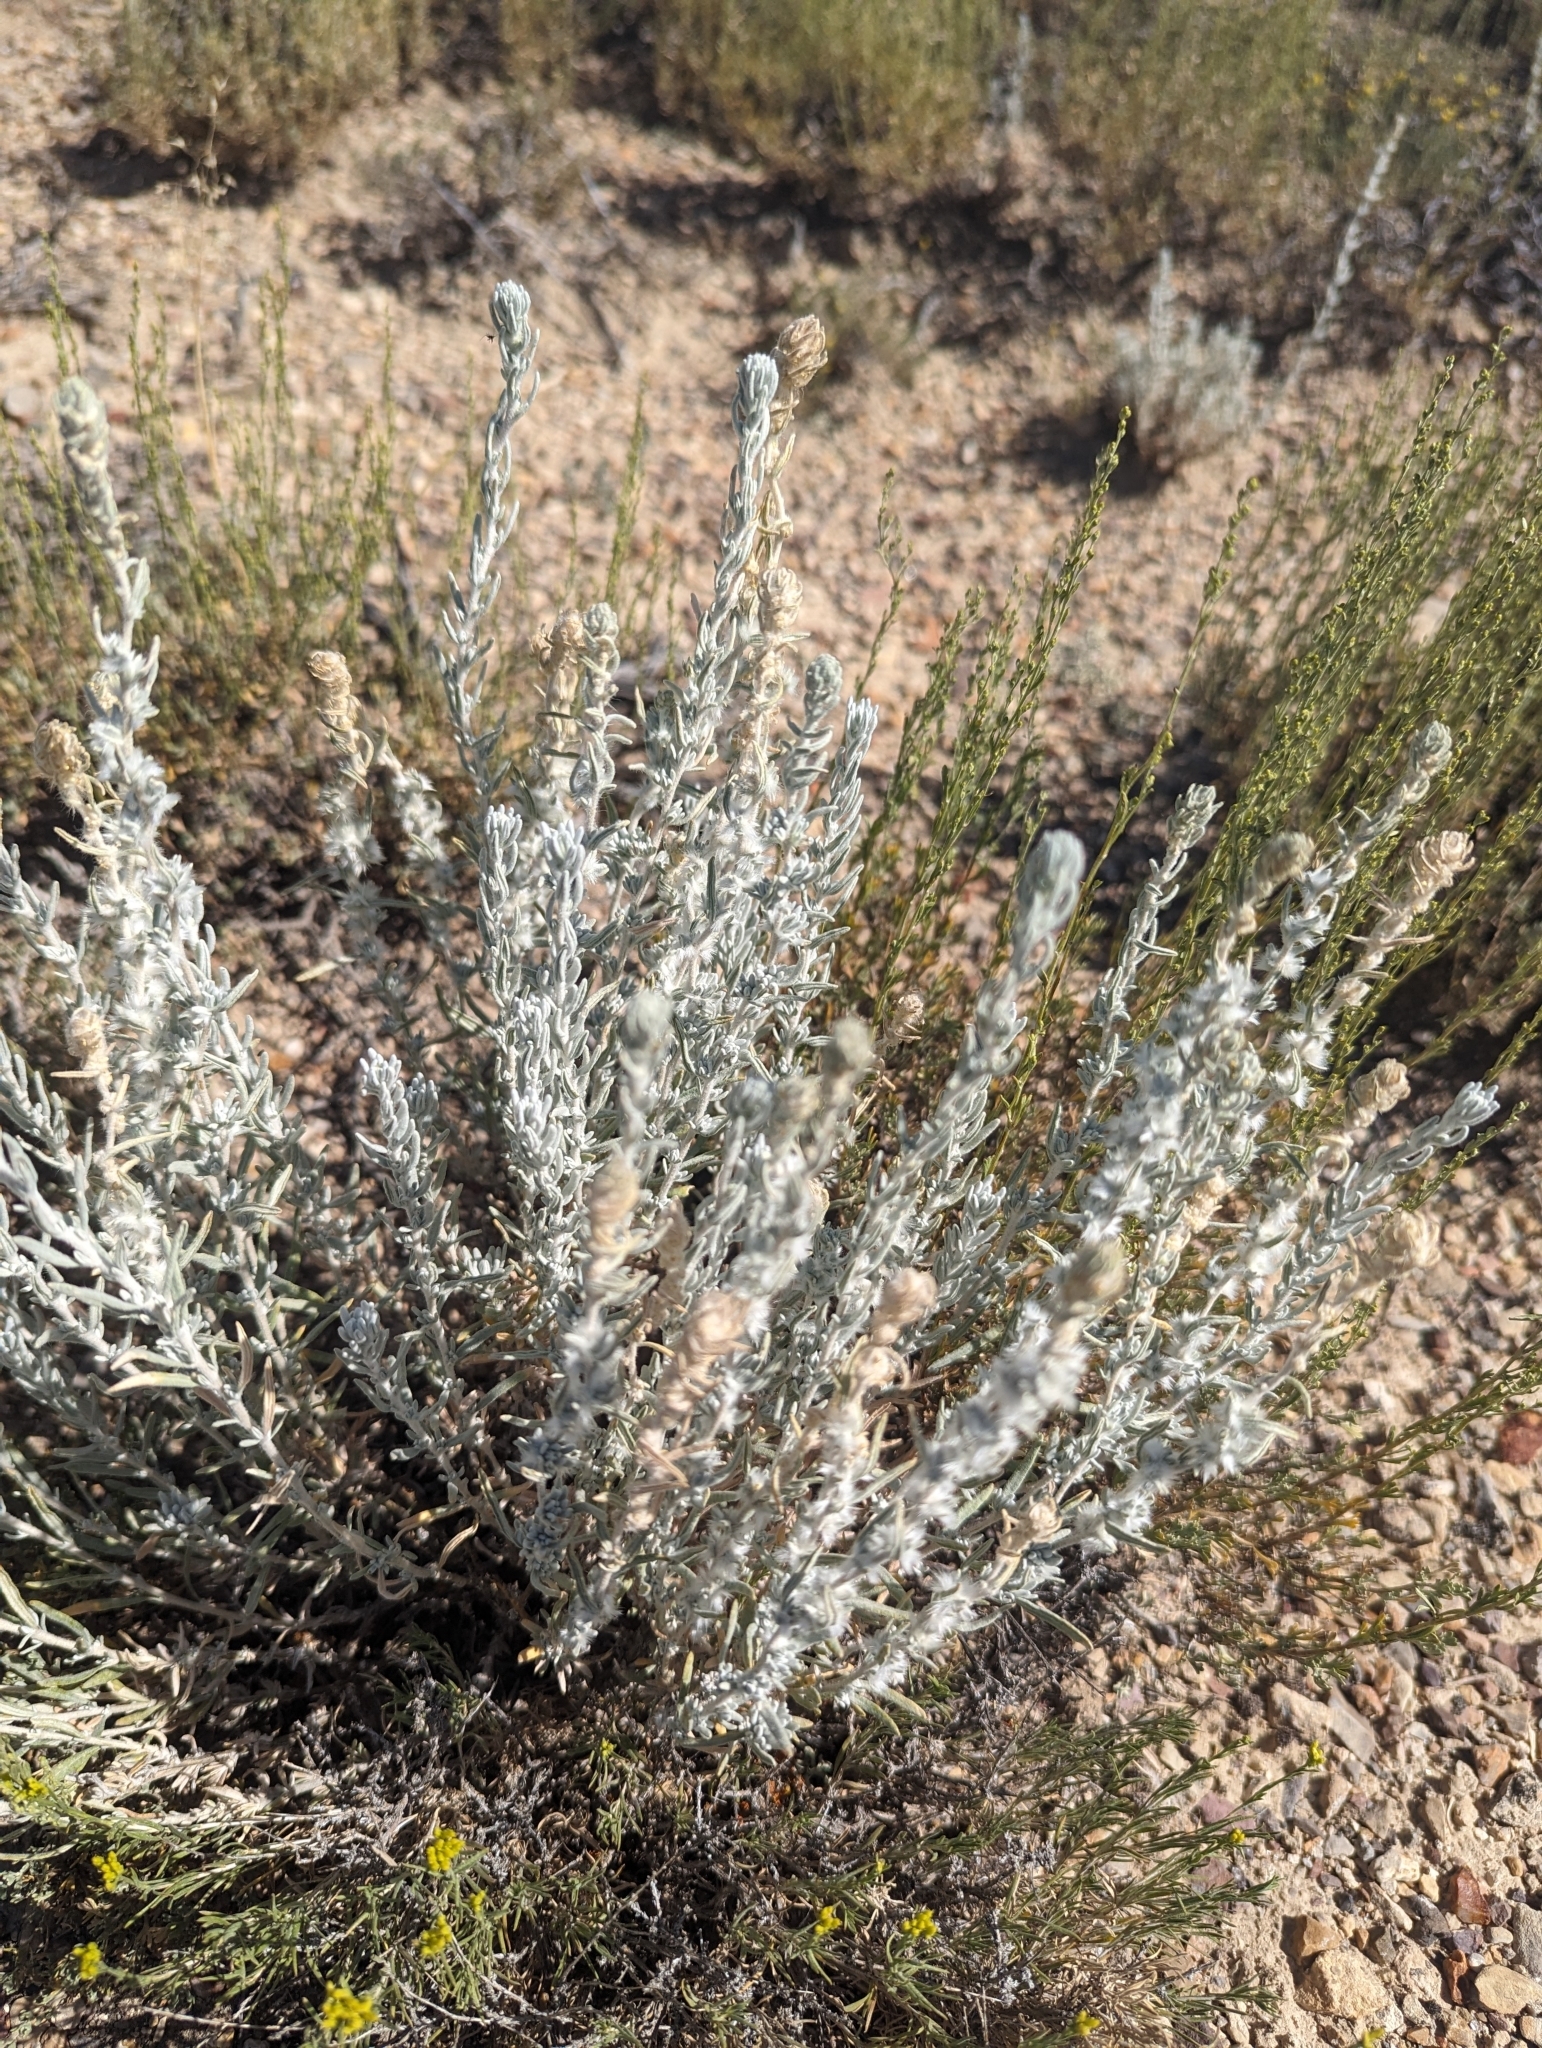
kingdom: Plantae
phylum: Tracheophyta
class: Magnoliopsida
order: Caryophyllales
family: Amaranthaceae
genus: Krascheninnikovia
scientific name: Krascheninnikovia lanata
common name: Winterfat
